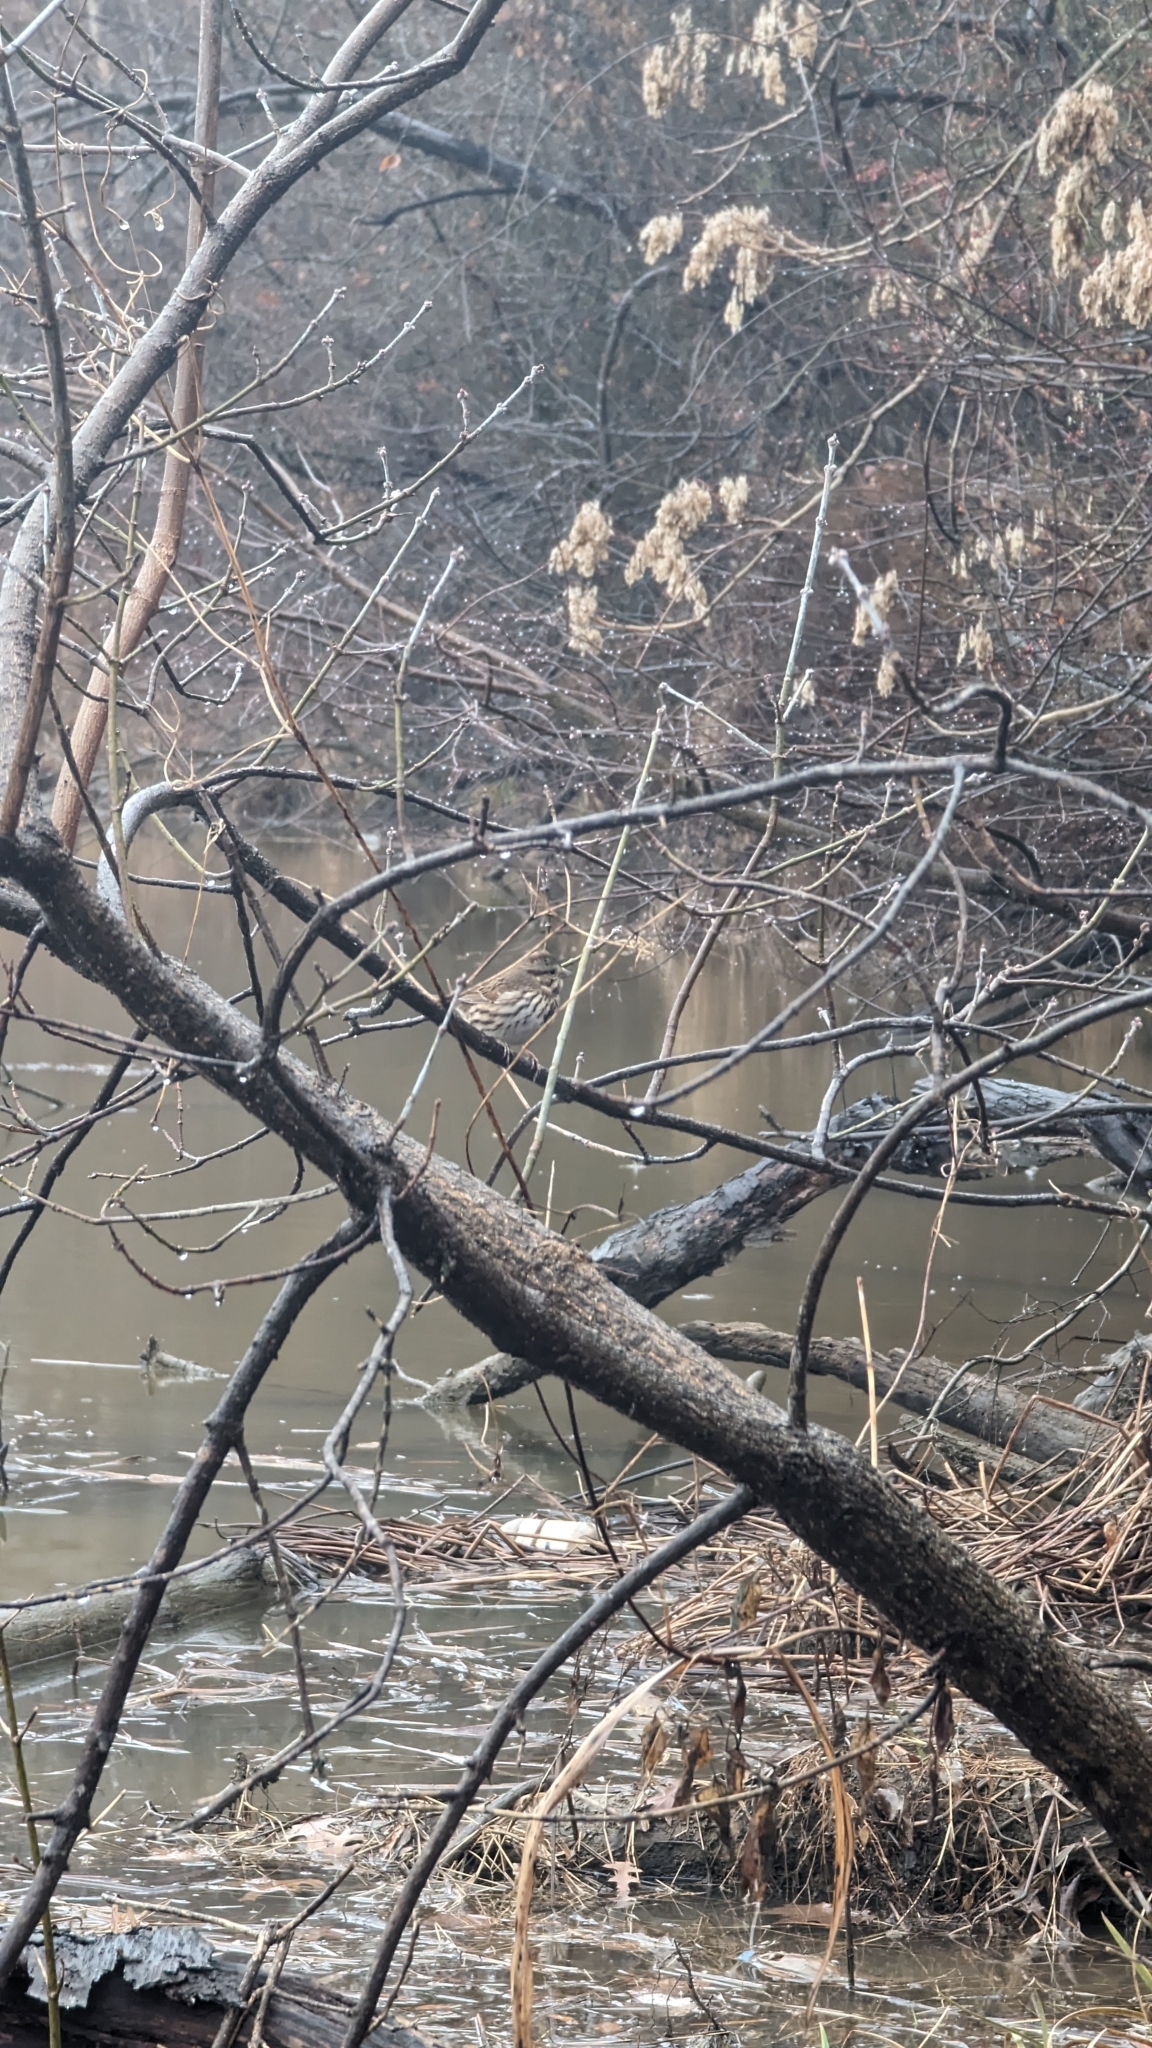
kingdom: Animalia
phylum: Chordata
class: Aves
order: Passeriformes
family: Passerellidae
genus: Melospiza
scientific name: Melospiza melodia
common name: Song sparrow
